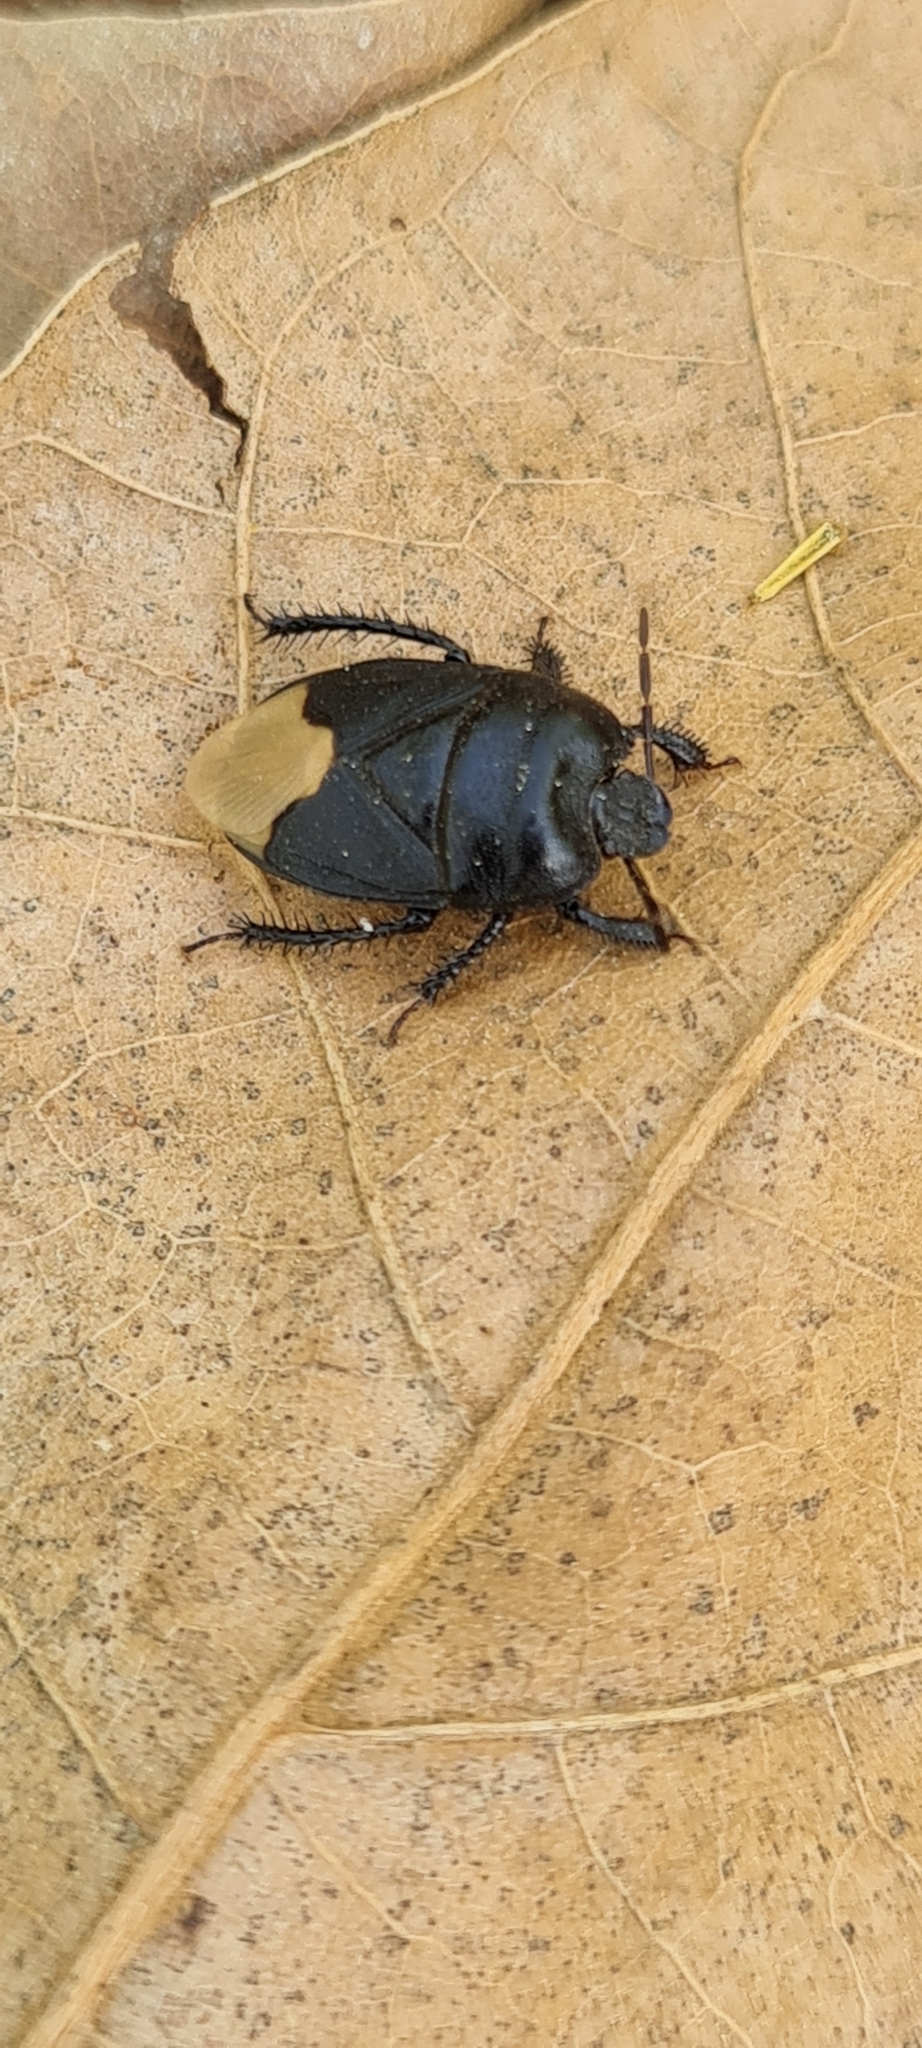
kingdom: Animalia
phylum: Arthropoda
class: Insecta
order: Hemiptera
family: Cydnidae
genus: Cydnus
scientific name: Cydnus aterrimus
